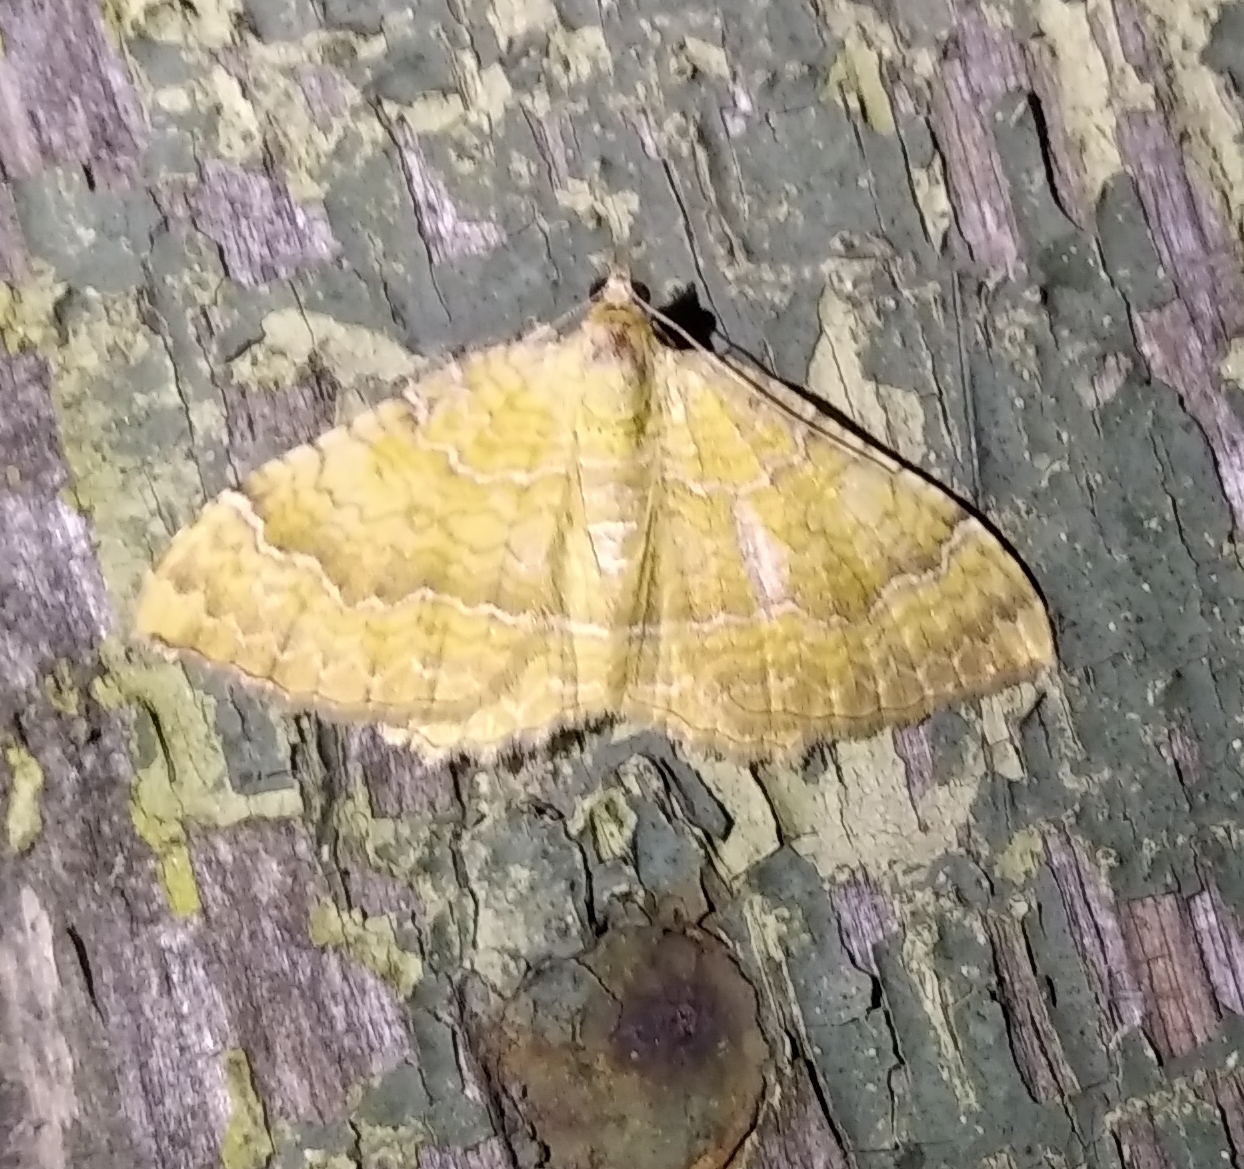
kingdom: Animalia
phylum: Arthropoda
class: Insecta
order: Lepidoptera
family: Geometridae
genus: Camptogramma
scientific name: Camptogramma bilineata
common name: Yellow shell
